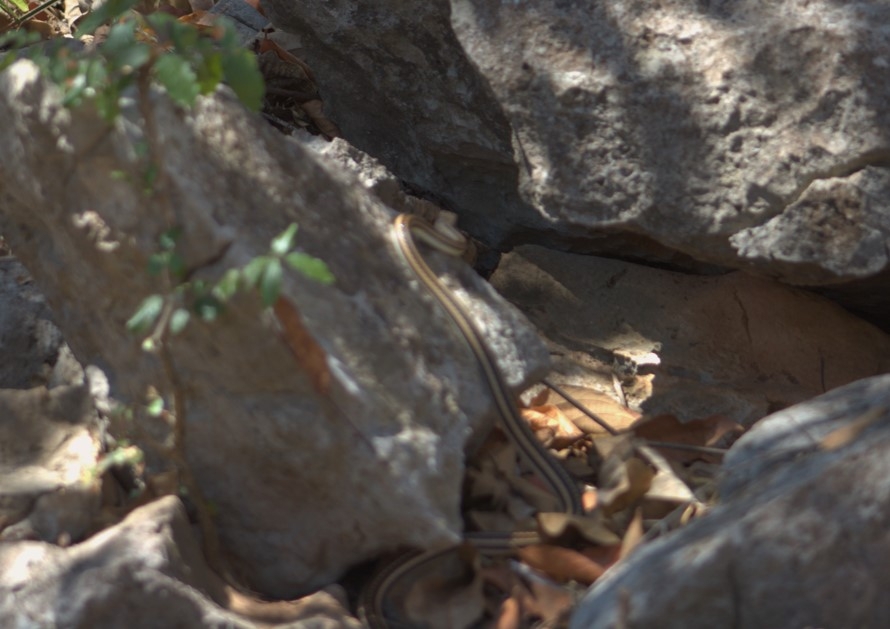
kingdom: Animalia
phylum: Chordata
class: Squamata
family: Colubridae
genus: Salvadora
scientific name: Salvadora lemniscata
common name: Pacific patchnose snake
